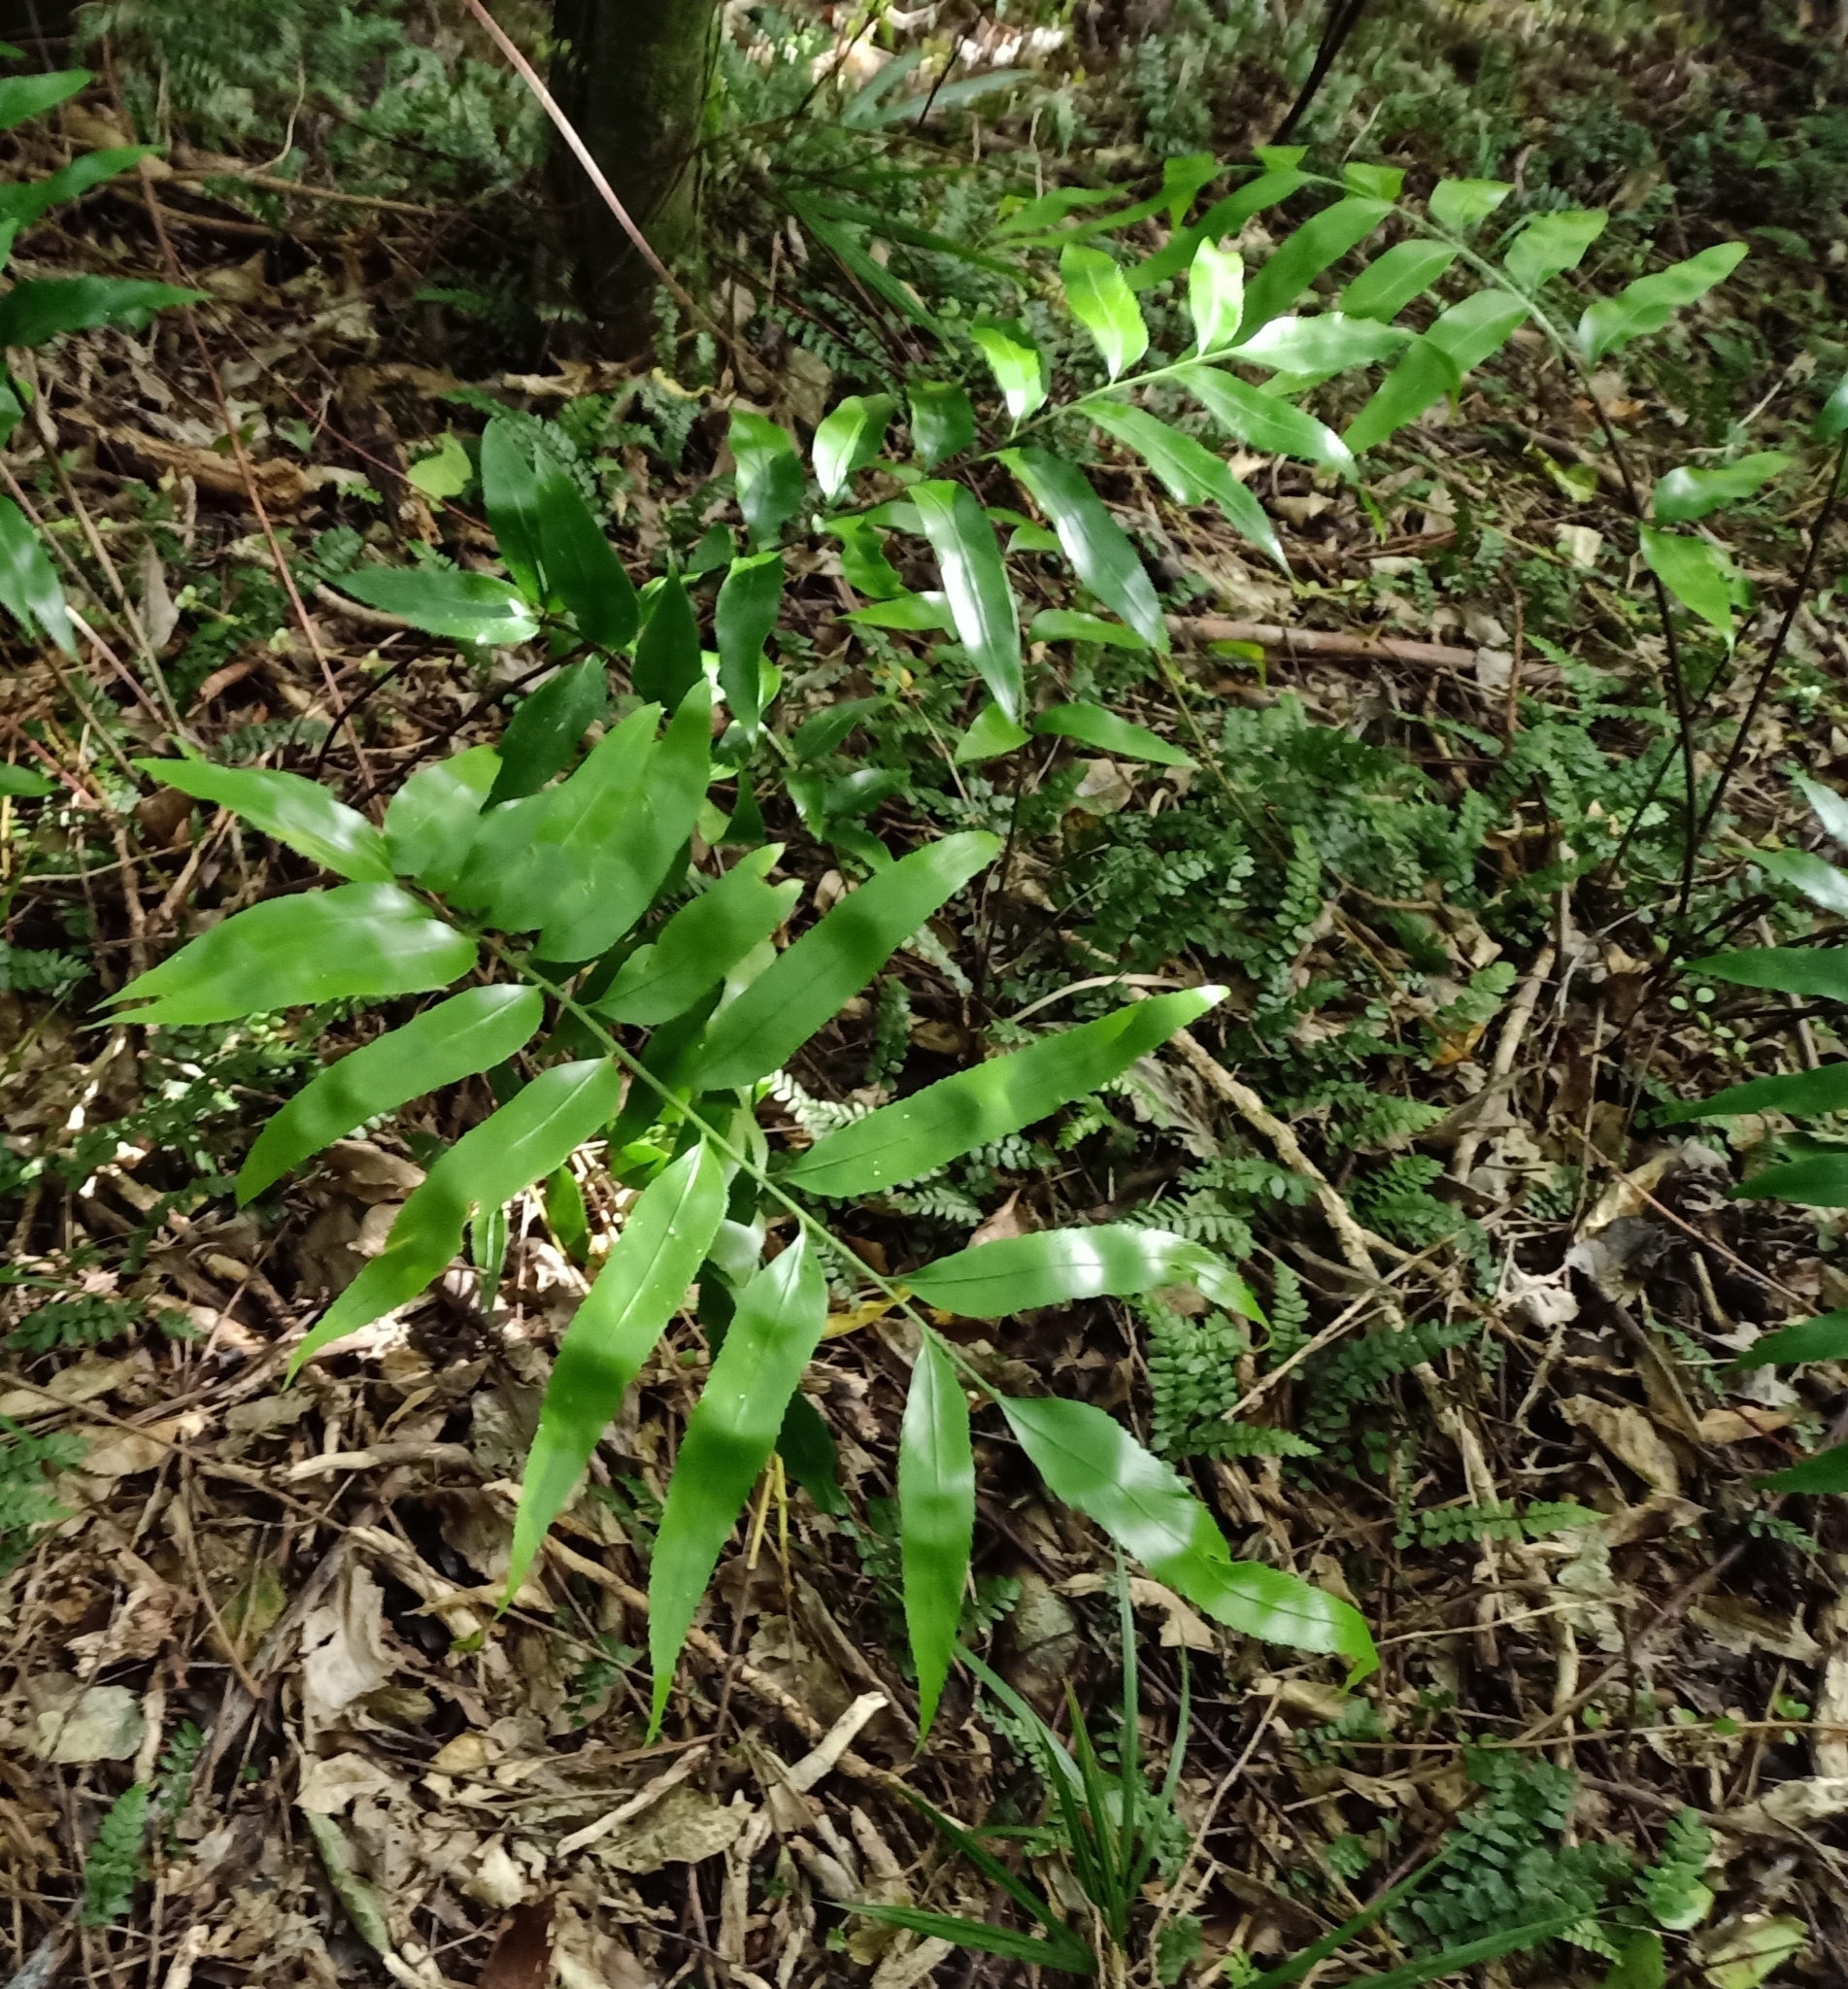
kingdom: Plantae
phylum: Tracheophyta
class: Polypodiopsida
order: Polypodiales
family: Aspleniaceae
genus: Asplenium
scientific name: Asplenium oblongifolium
